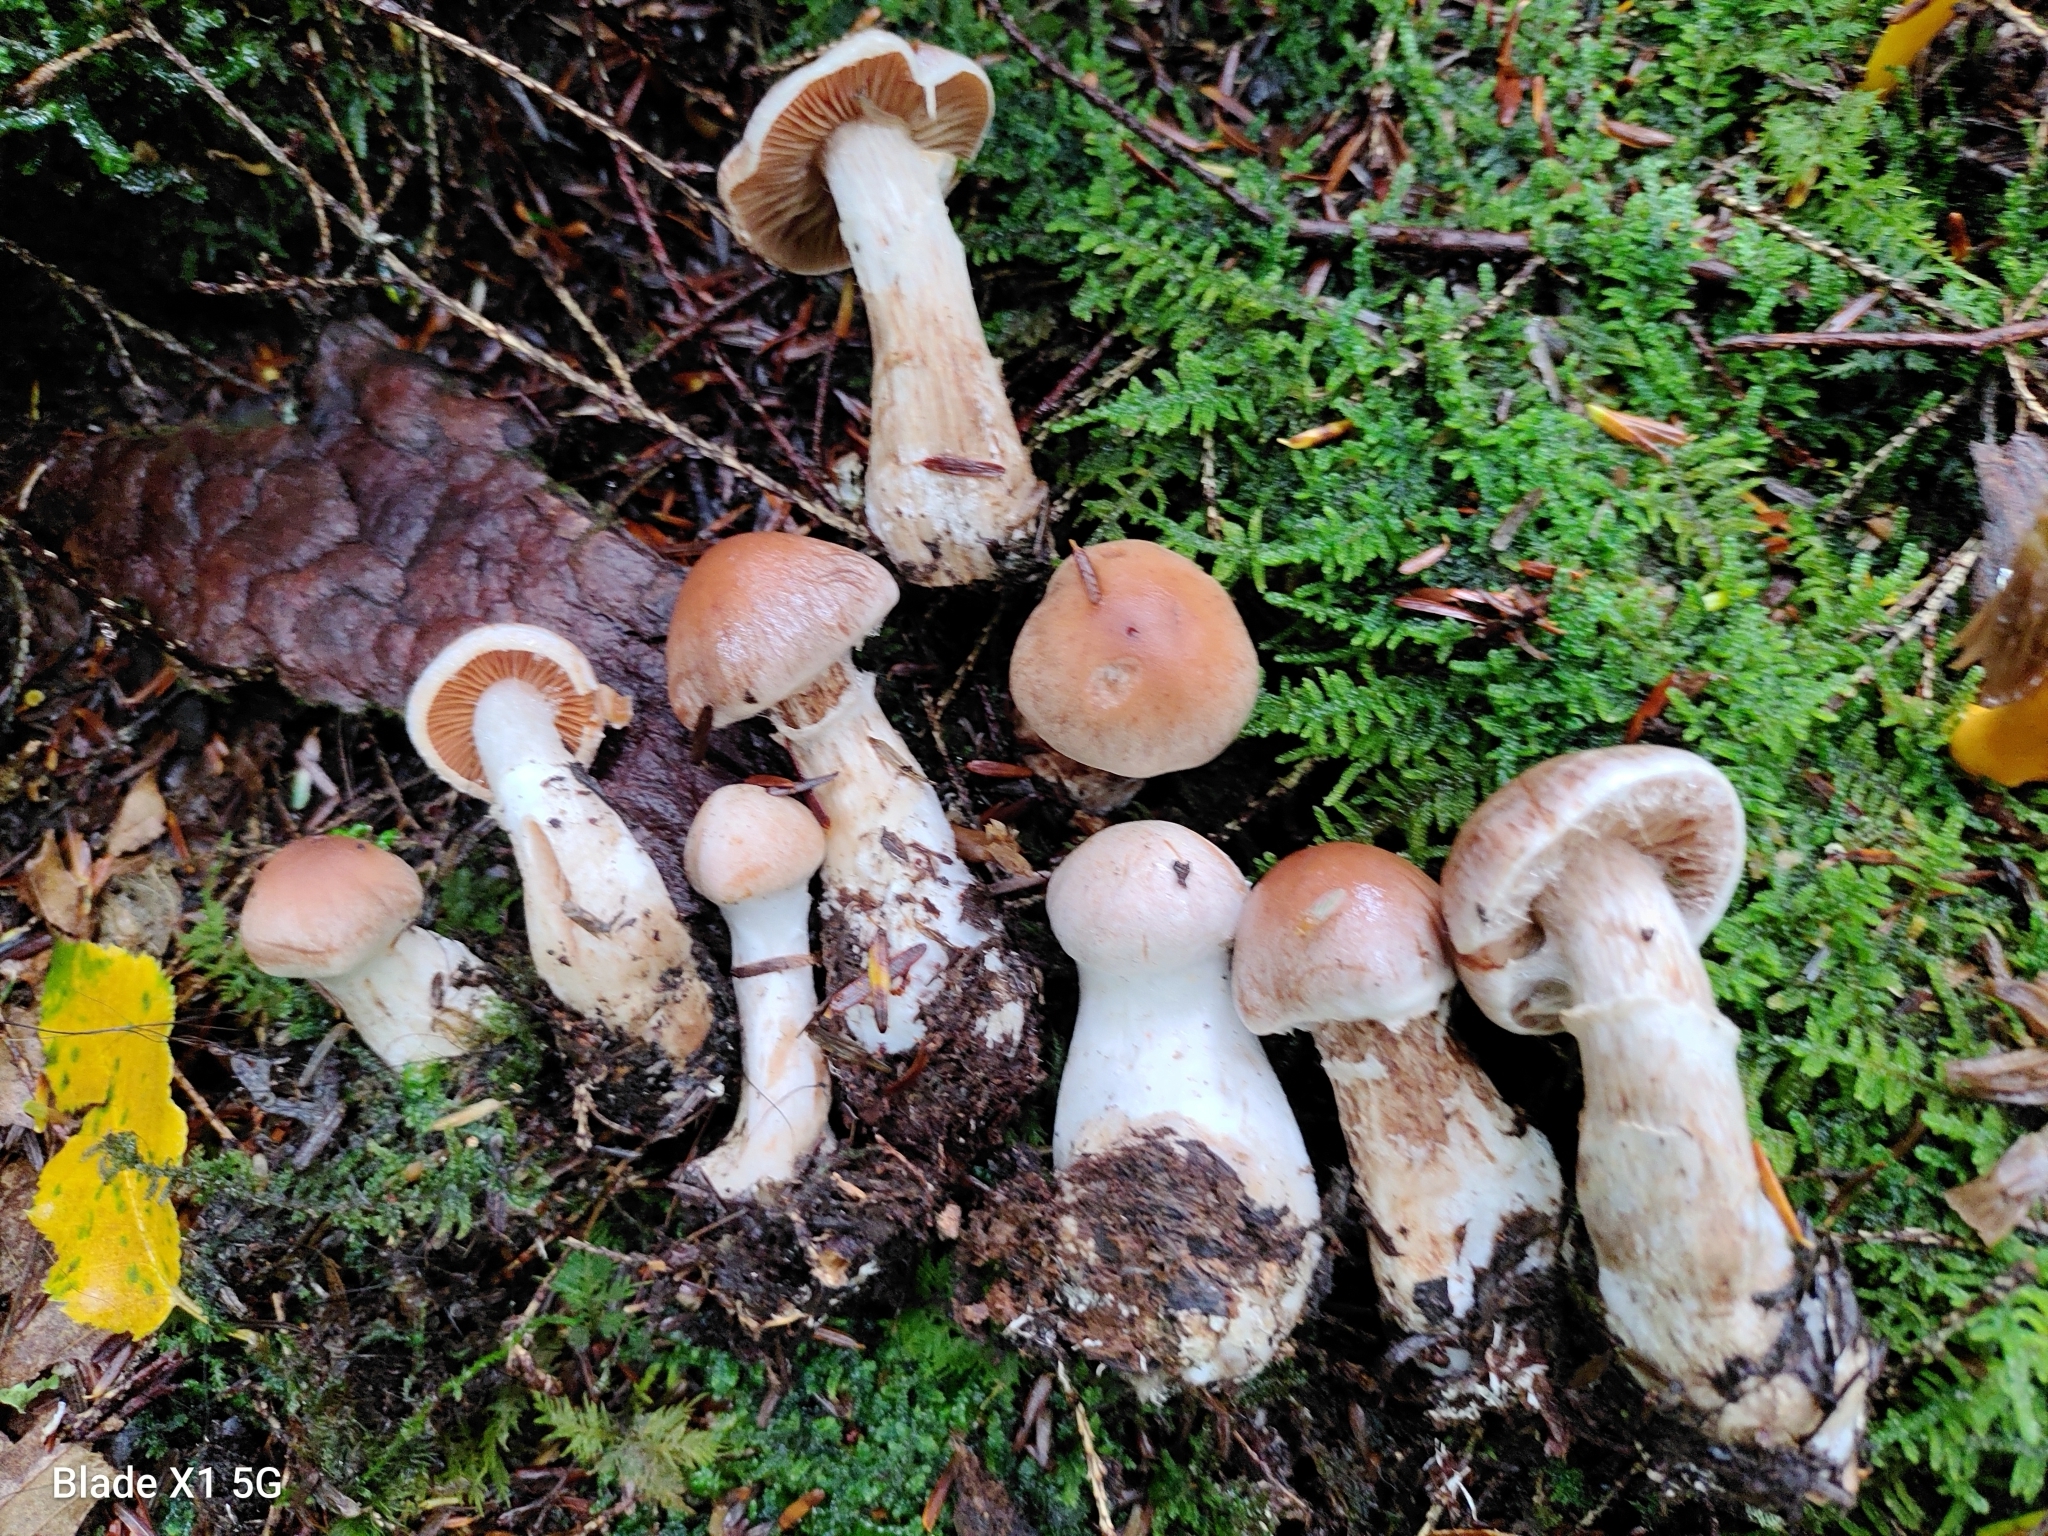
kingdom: Fungi
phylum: Basidiomycota
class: Agaricomycetes
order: Agaricales
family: Cortinariaceae
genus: Cortinarius
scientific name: Cortinarius solis-occasus
